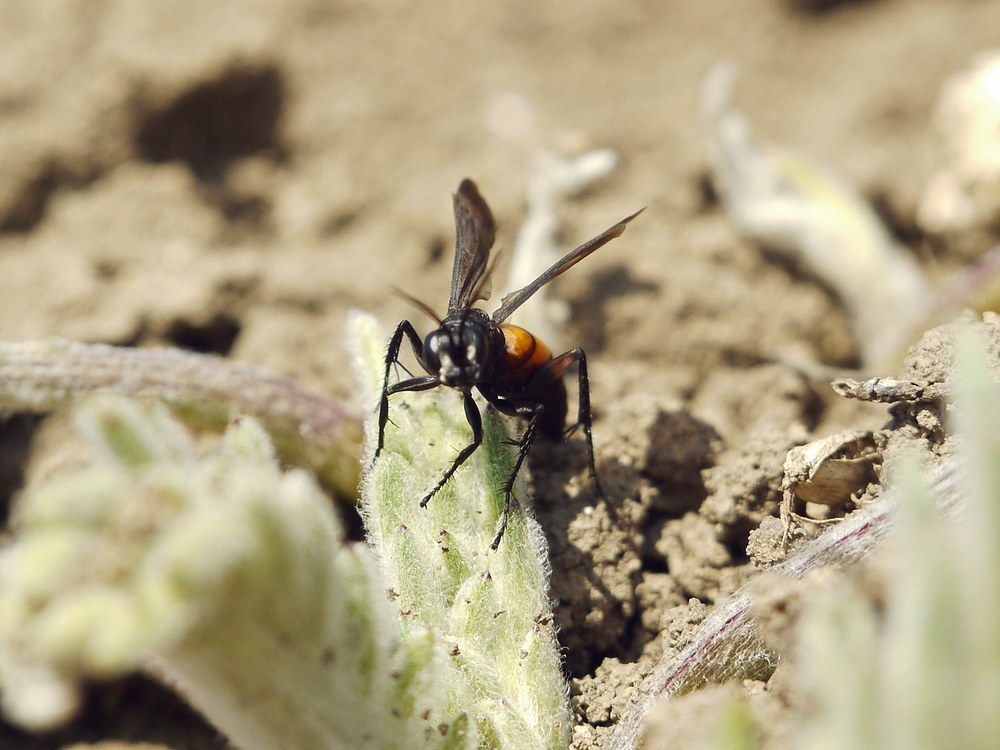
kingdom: Animalia
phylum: Arthropoda
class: Insecta
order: Hymenoptera
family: Pompilidae
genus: Anoplius
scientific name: Anoplius viaticus
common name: Black banded spider wasp
